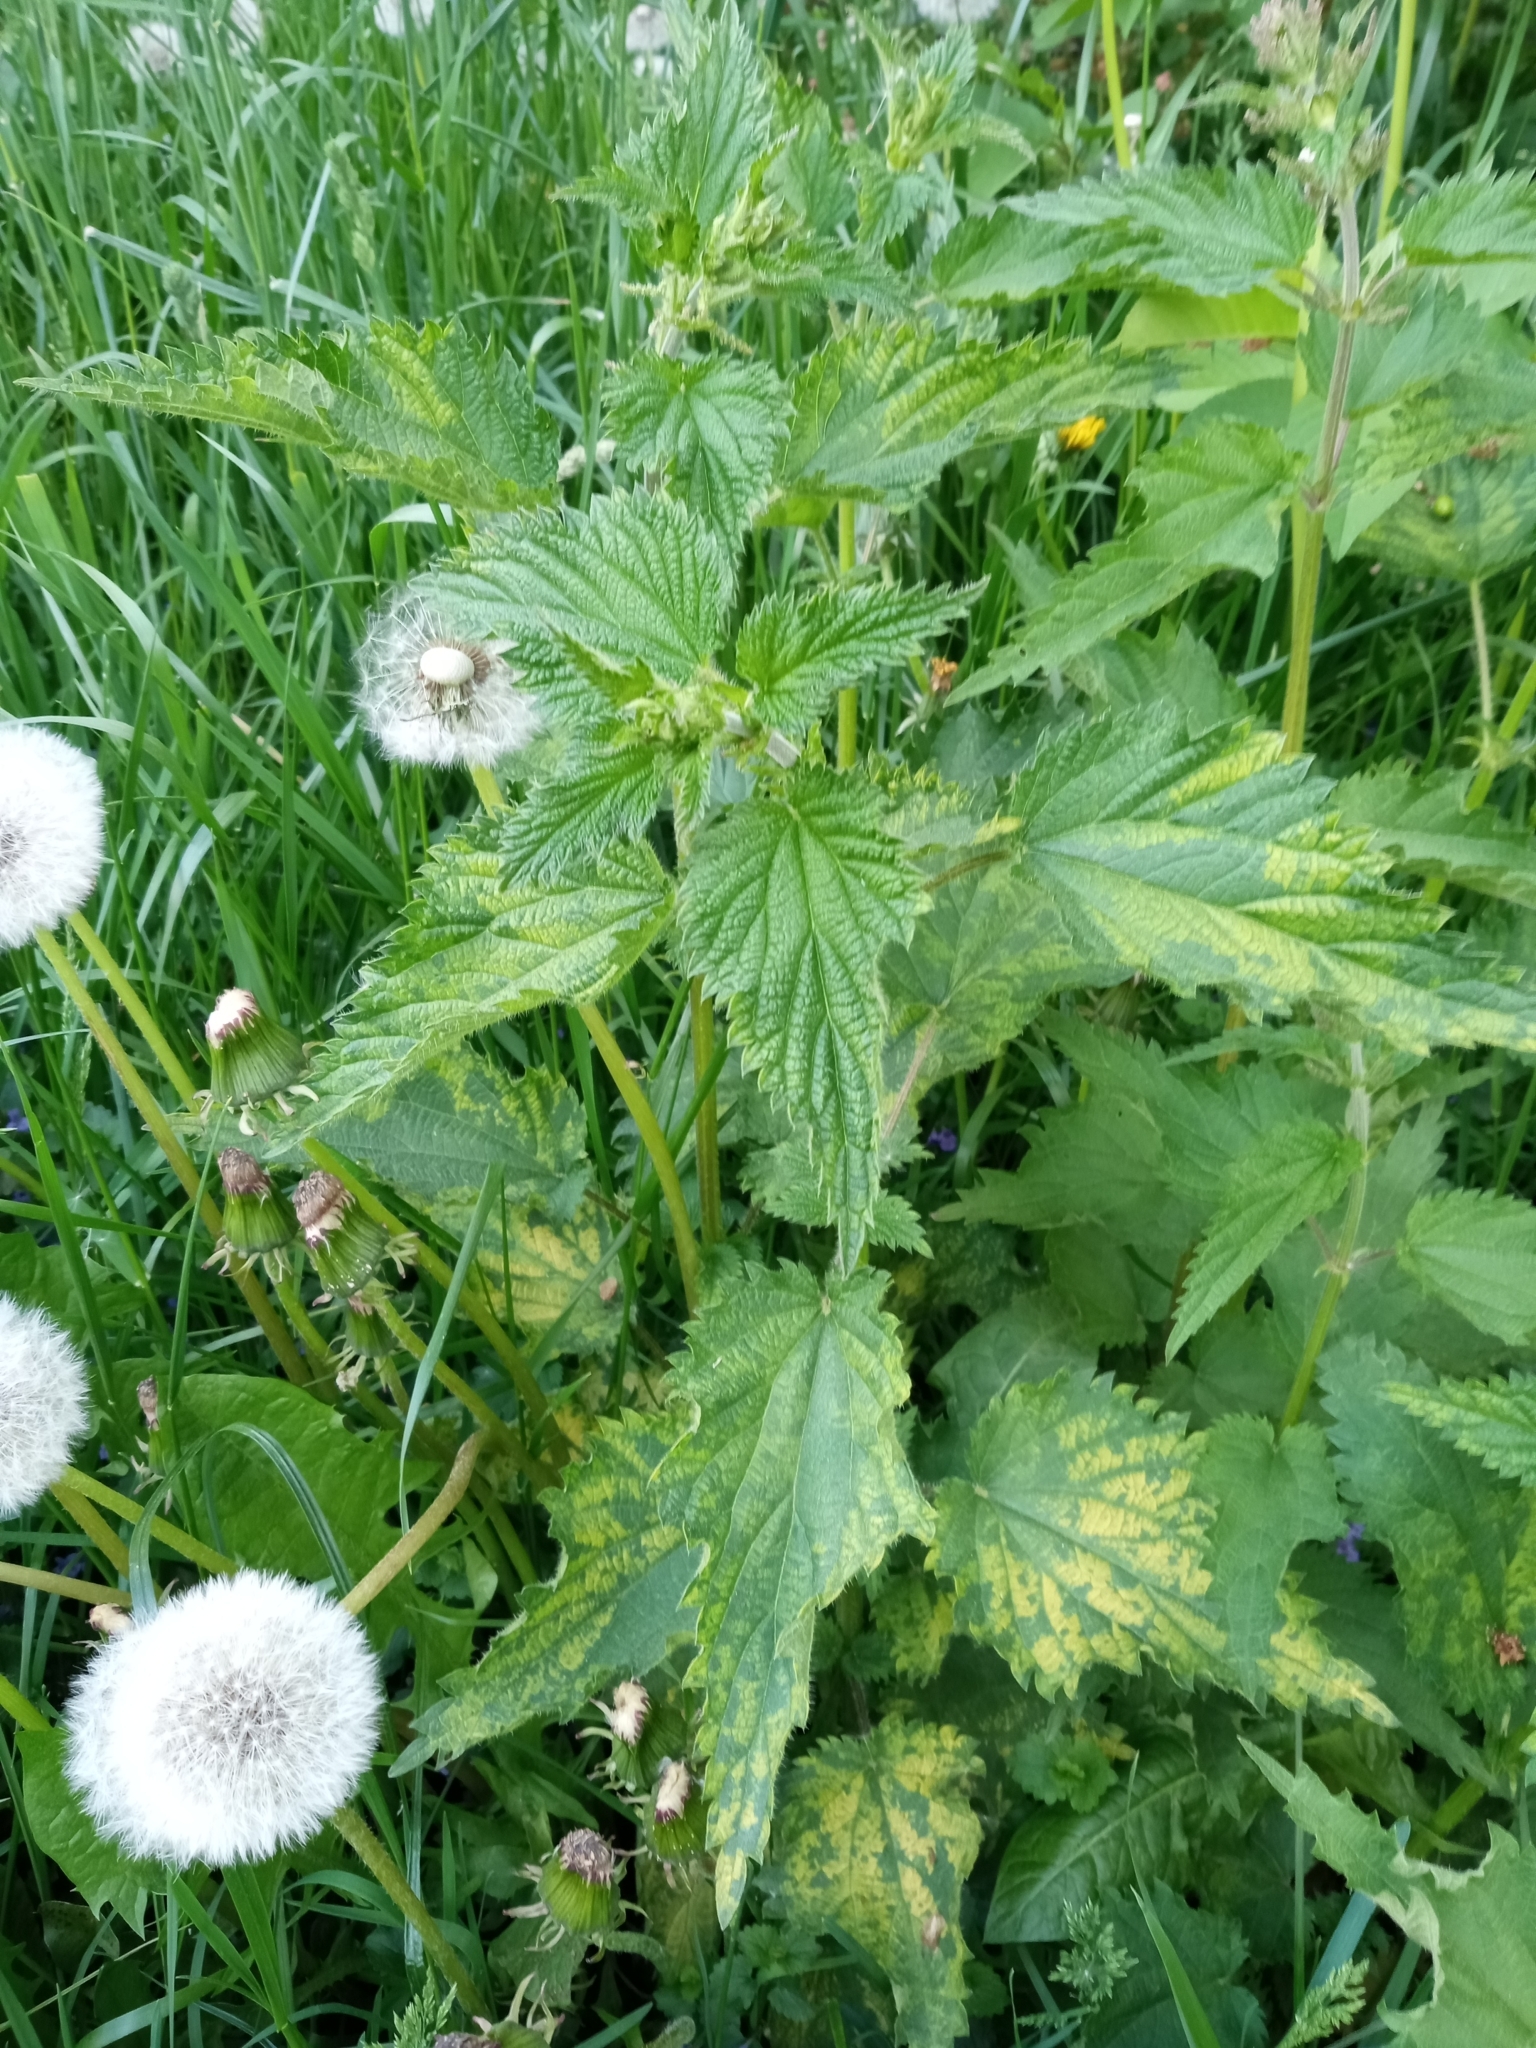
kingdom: Plantae
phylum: Tracheophyta
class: Magnoliopsida
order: Rosales
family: Urticaceae
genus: Urtica
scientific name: Urtica dioica
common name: Common nettle
